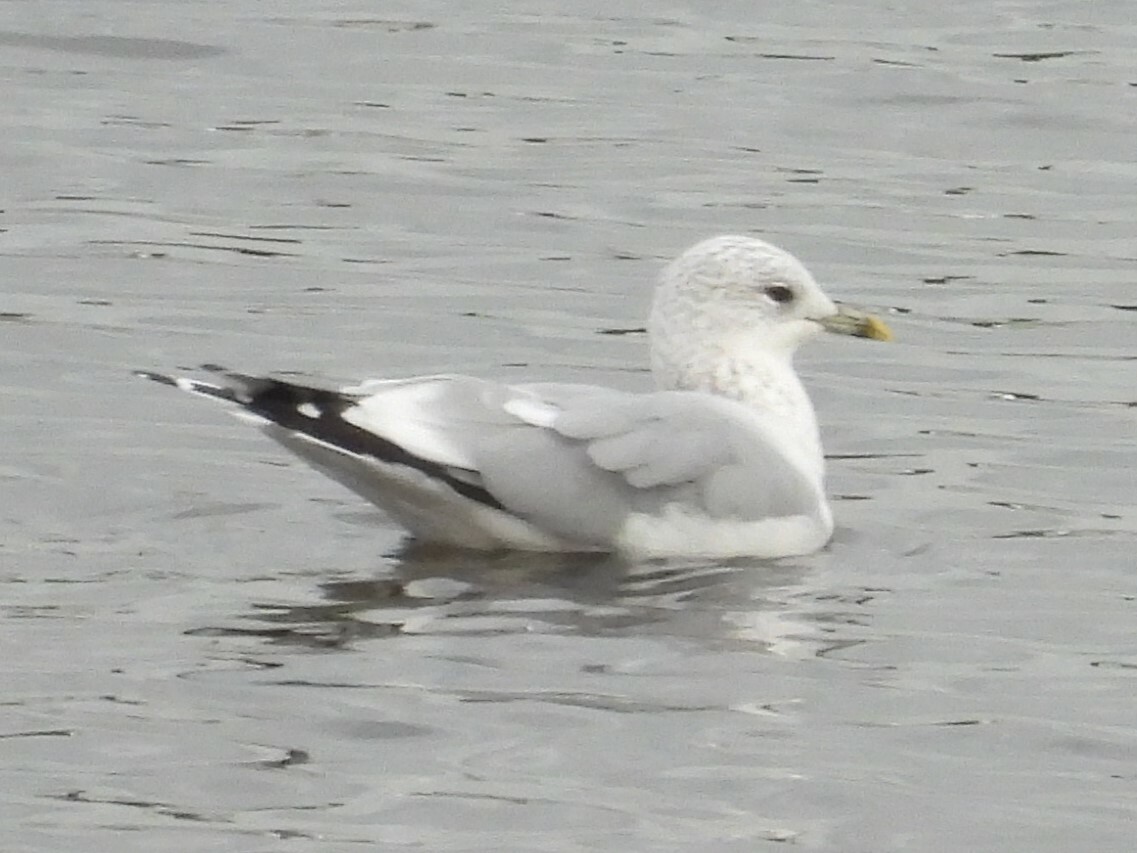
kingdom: Animalia
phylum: Chordata
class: Aves
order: Charadriiformes
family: Laridae
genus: Larus
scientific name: Larus canus
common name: Mew gull
